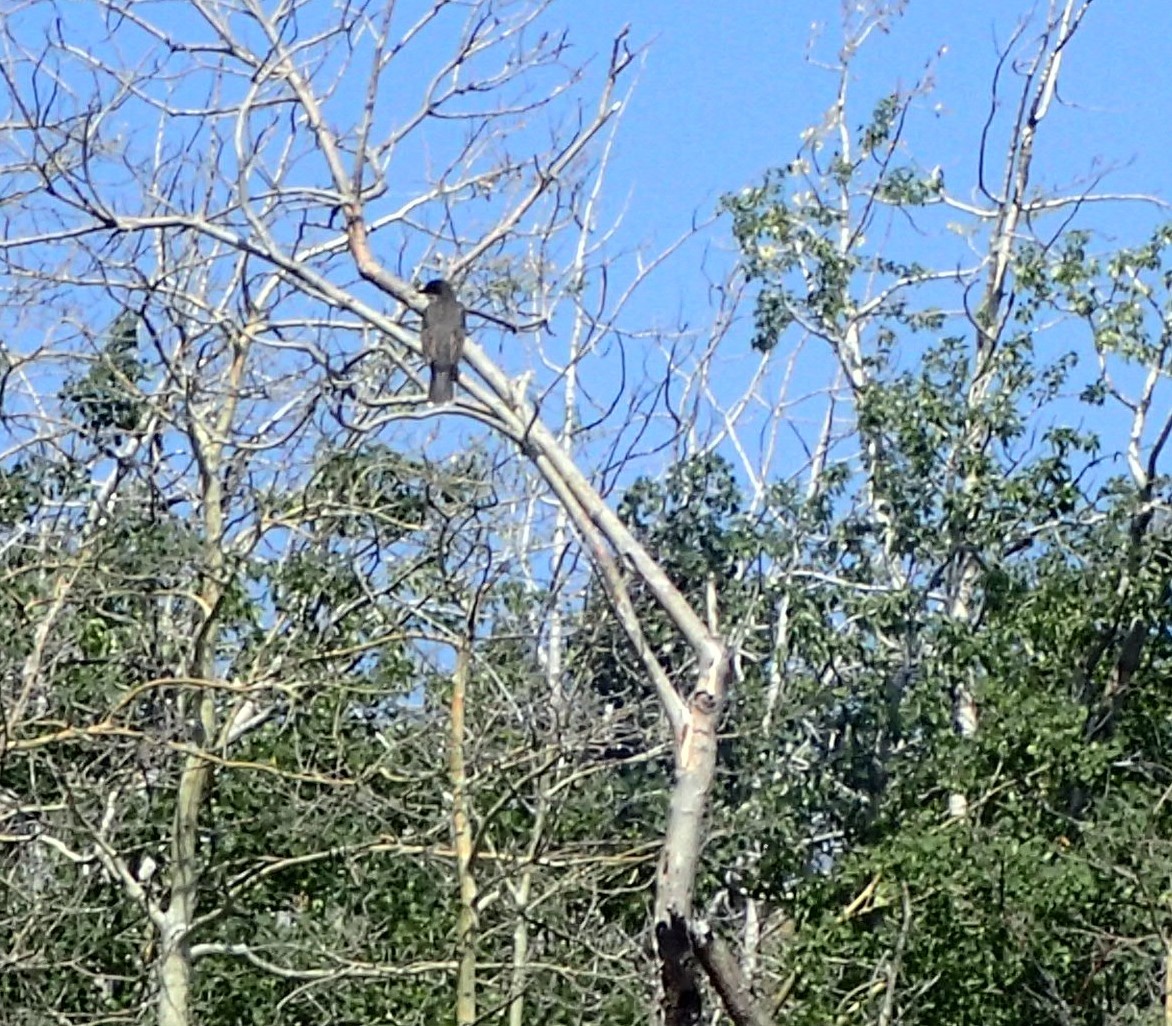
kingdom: Animalia
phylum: Chordata
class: Aves
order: Passeriformes
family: Tyrannidae
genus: Tyrannus
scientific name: Tyrannus tyrannus
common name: Eastern kingbird
